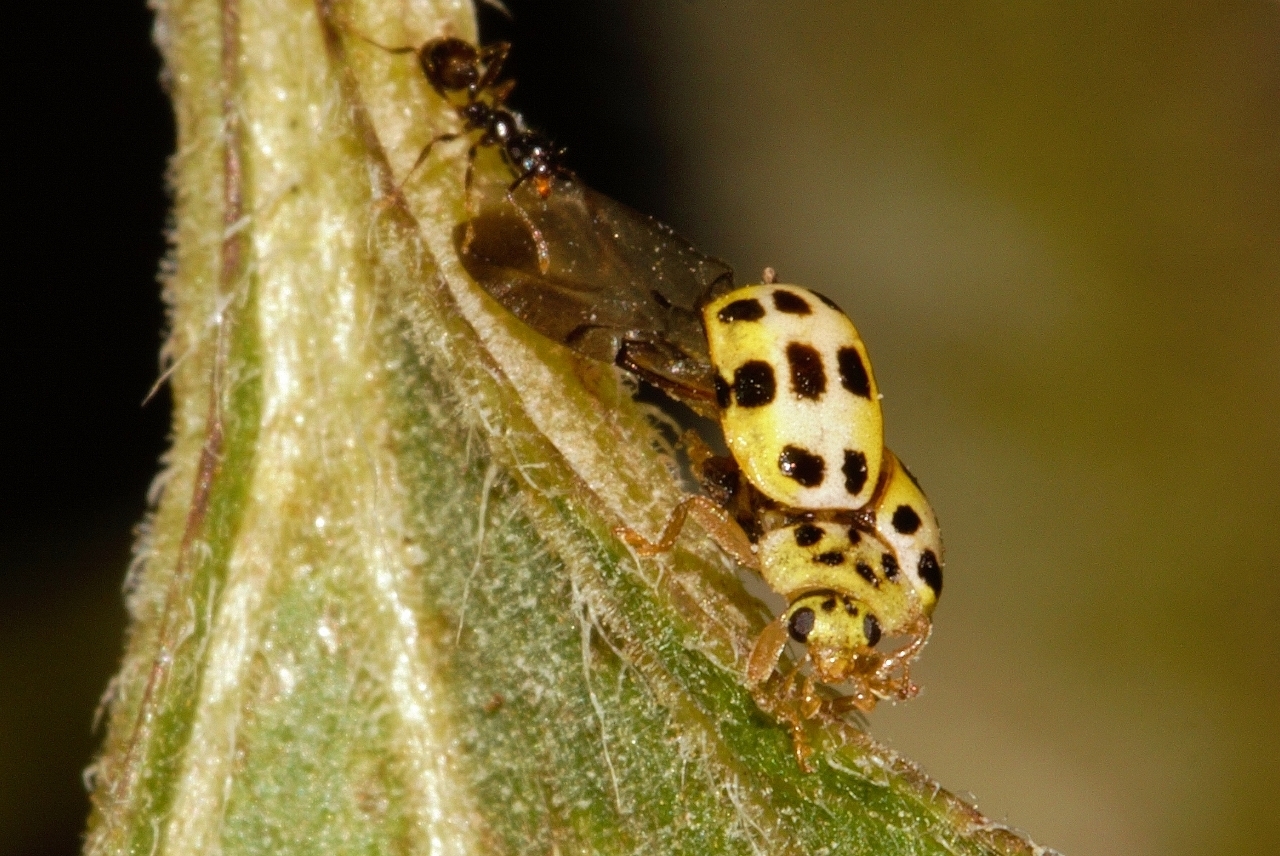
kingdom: Animalia
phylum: Arthropoda
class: Insecta
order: Coleoptera
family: Coccinellidae
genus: Psyllobora
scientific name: Psyllobora variegata
